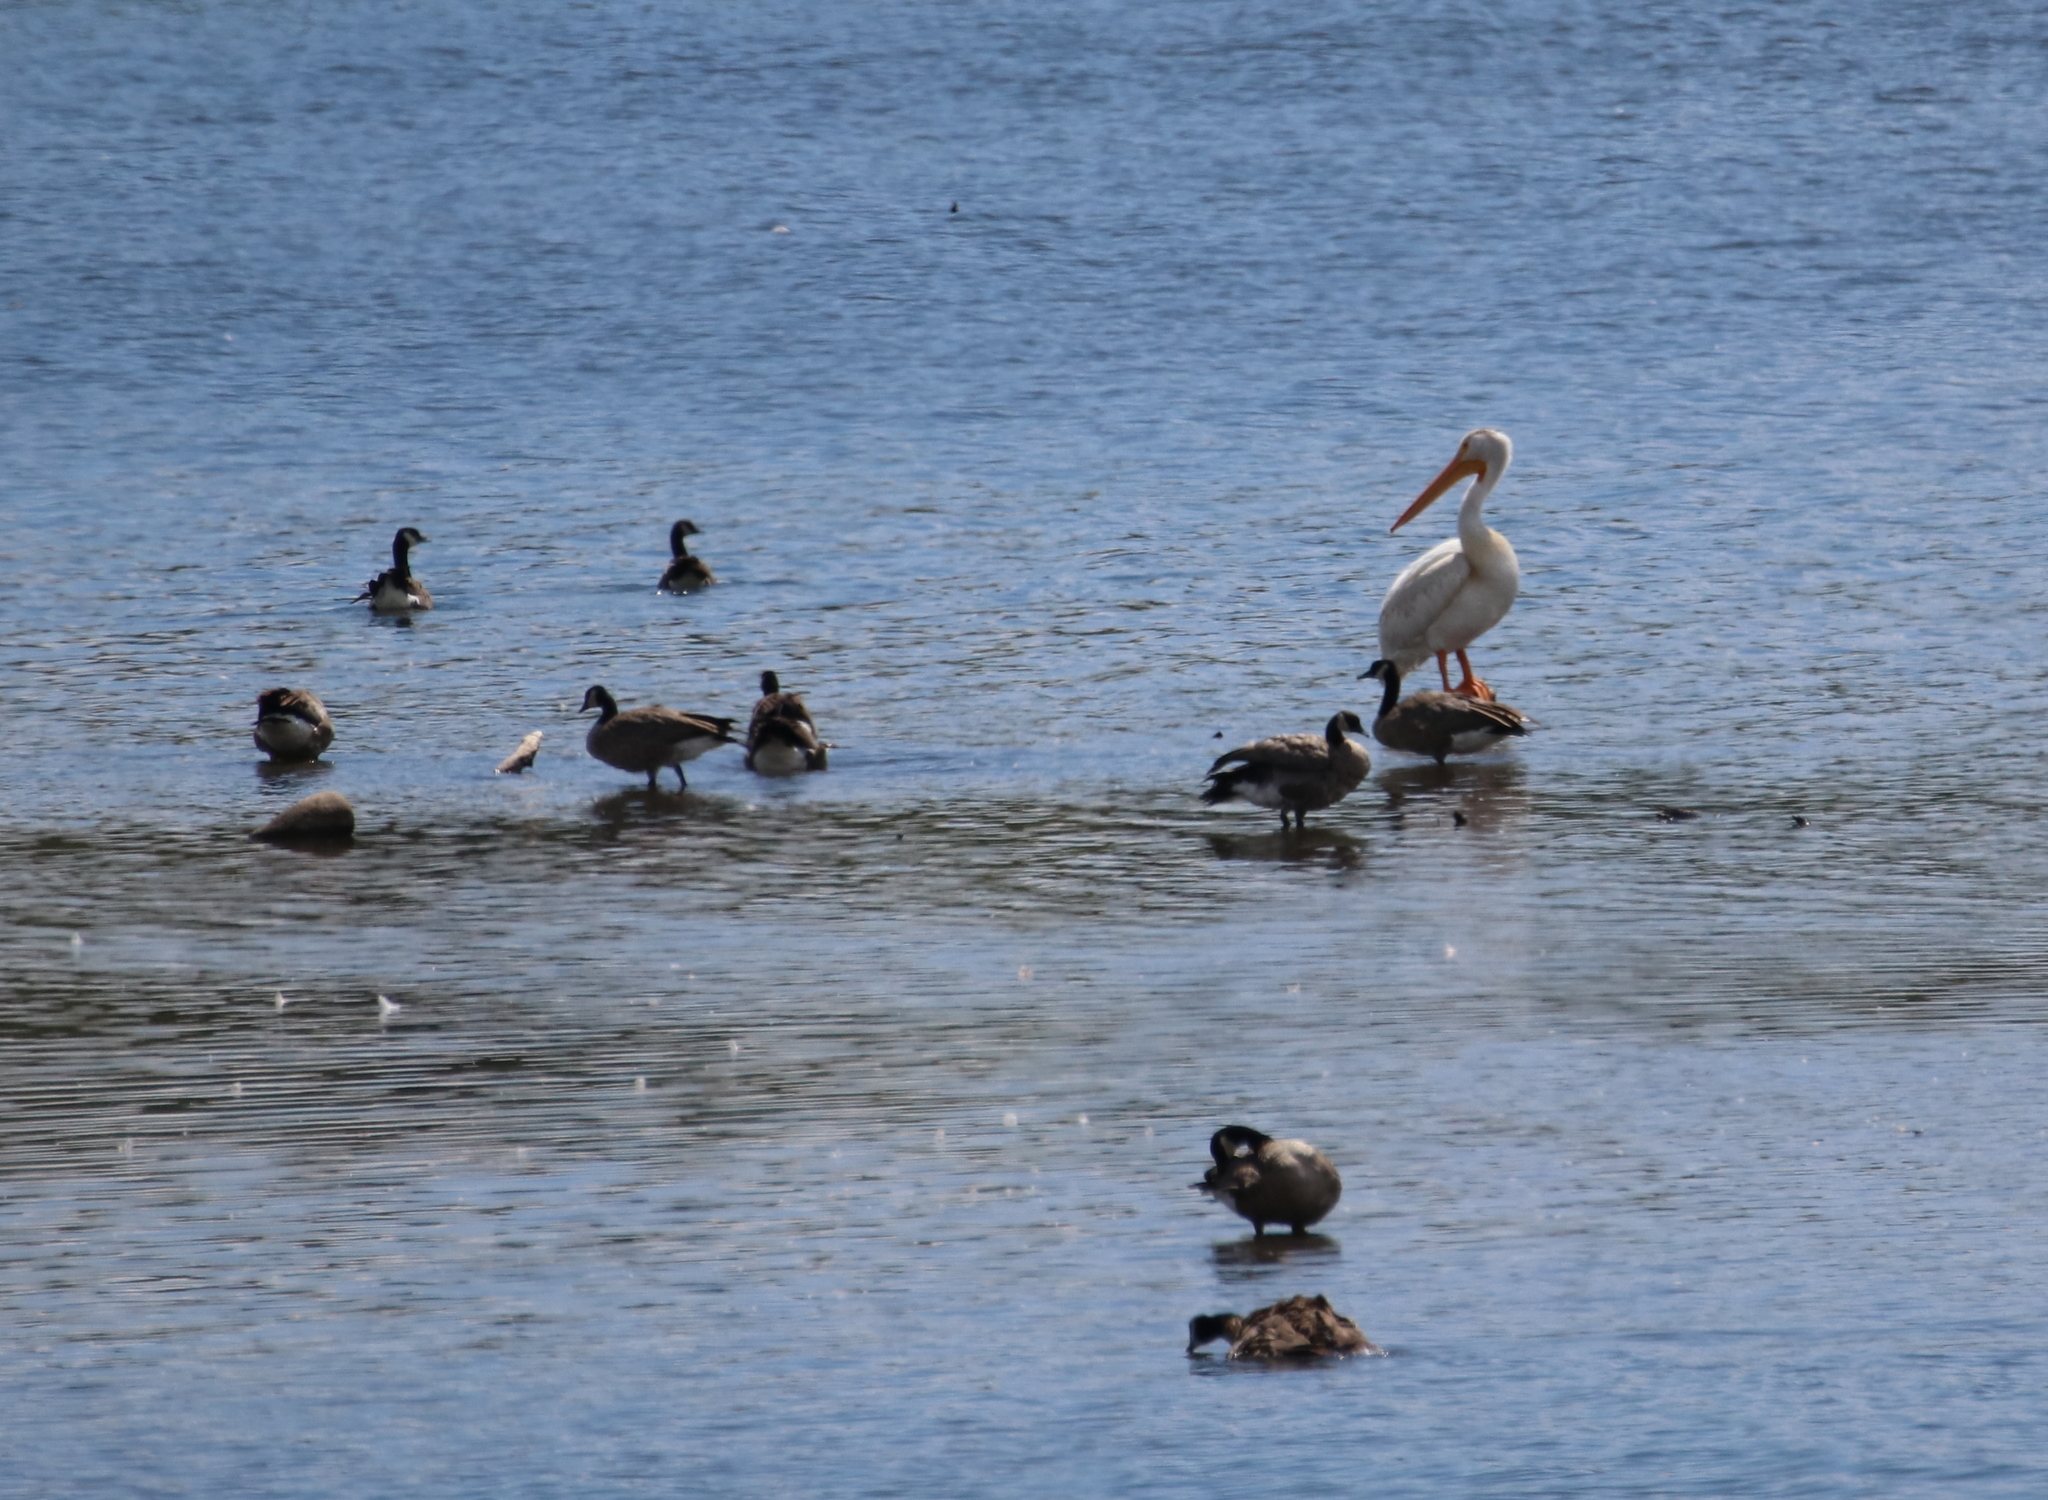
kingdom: Animalia
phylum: Chordata
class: Aves
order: Pelecaniformes
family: Pelecanidae
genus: Pelecanus
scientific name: Pelecanus erythrorhynchos
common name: American white pelican
